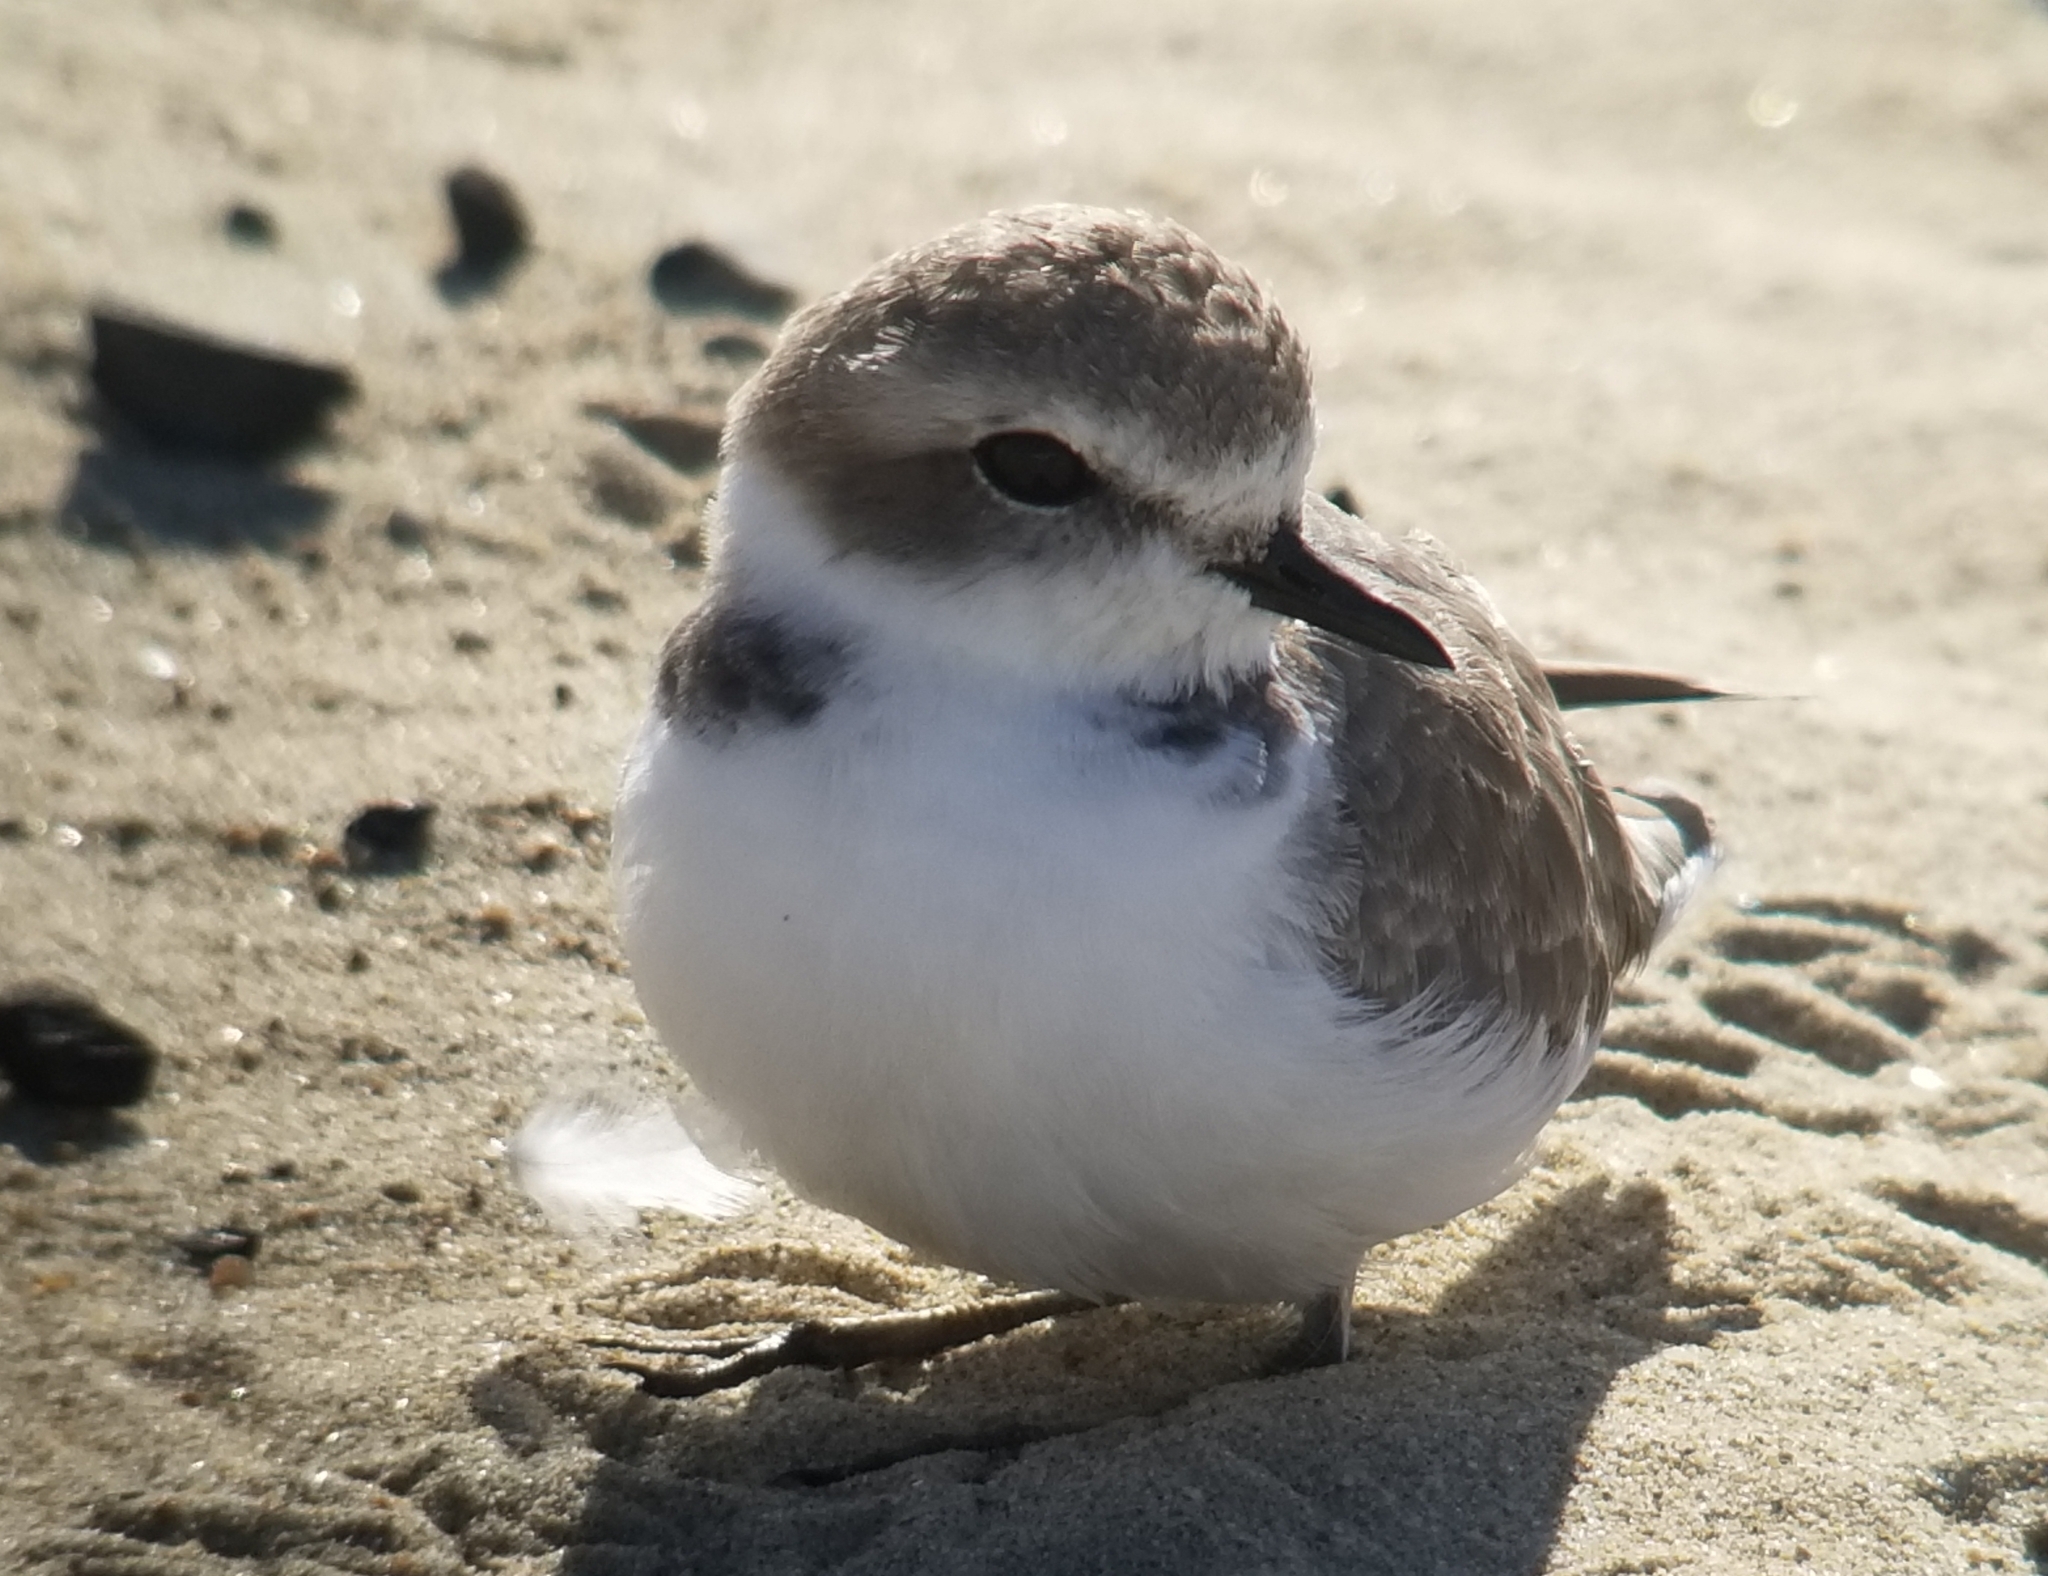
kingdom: Animalia
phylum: Chordata
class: Aves
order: Charadriiformes
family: Charadriidae
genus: Anarhynchus
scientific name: Anarhynchus
